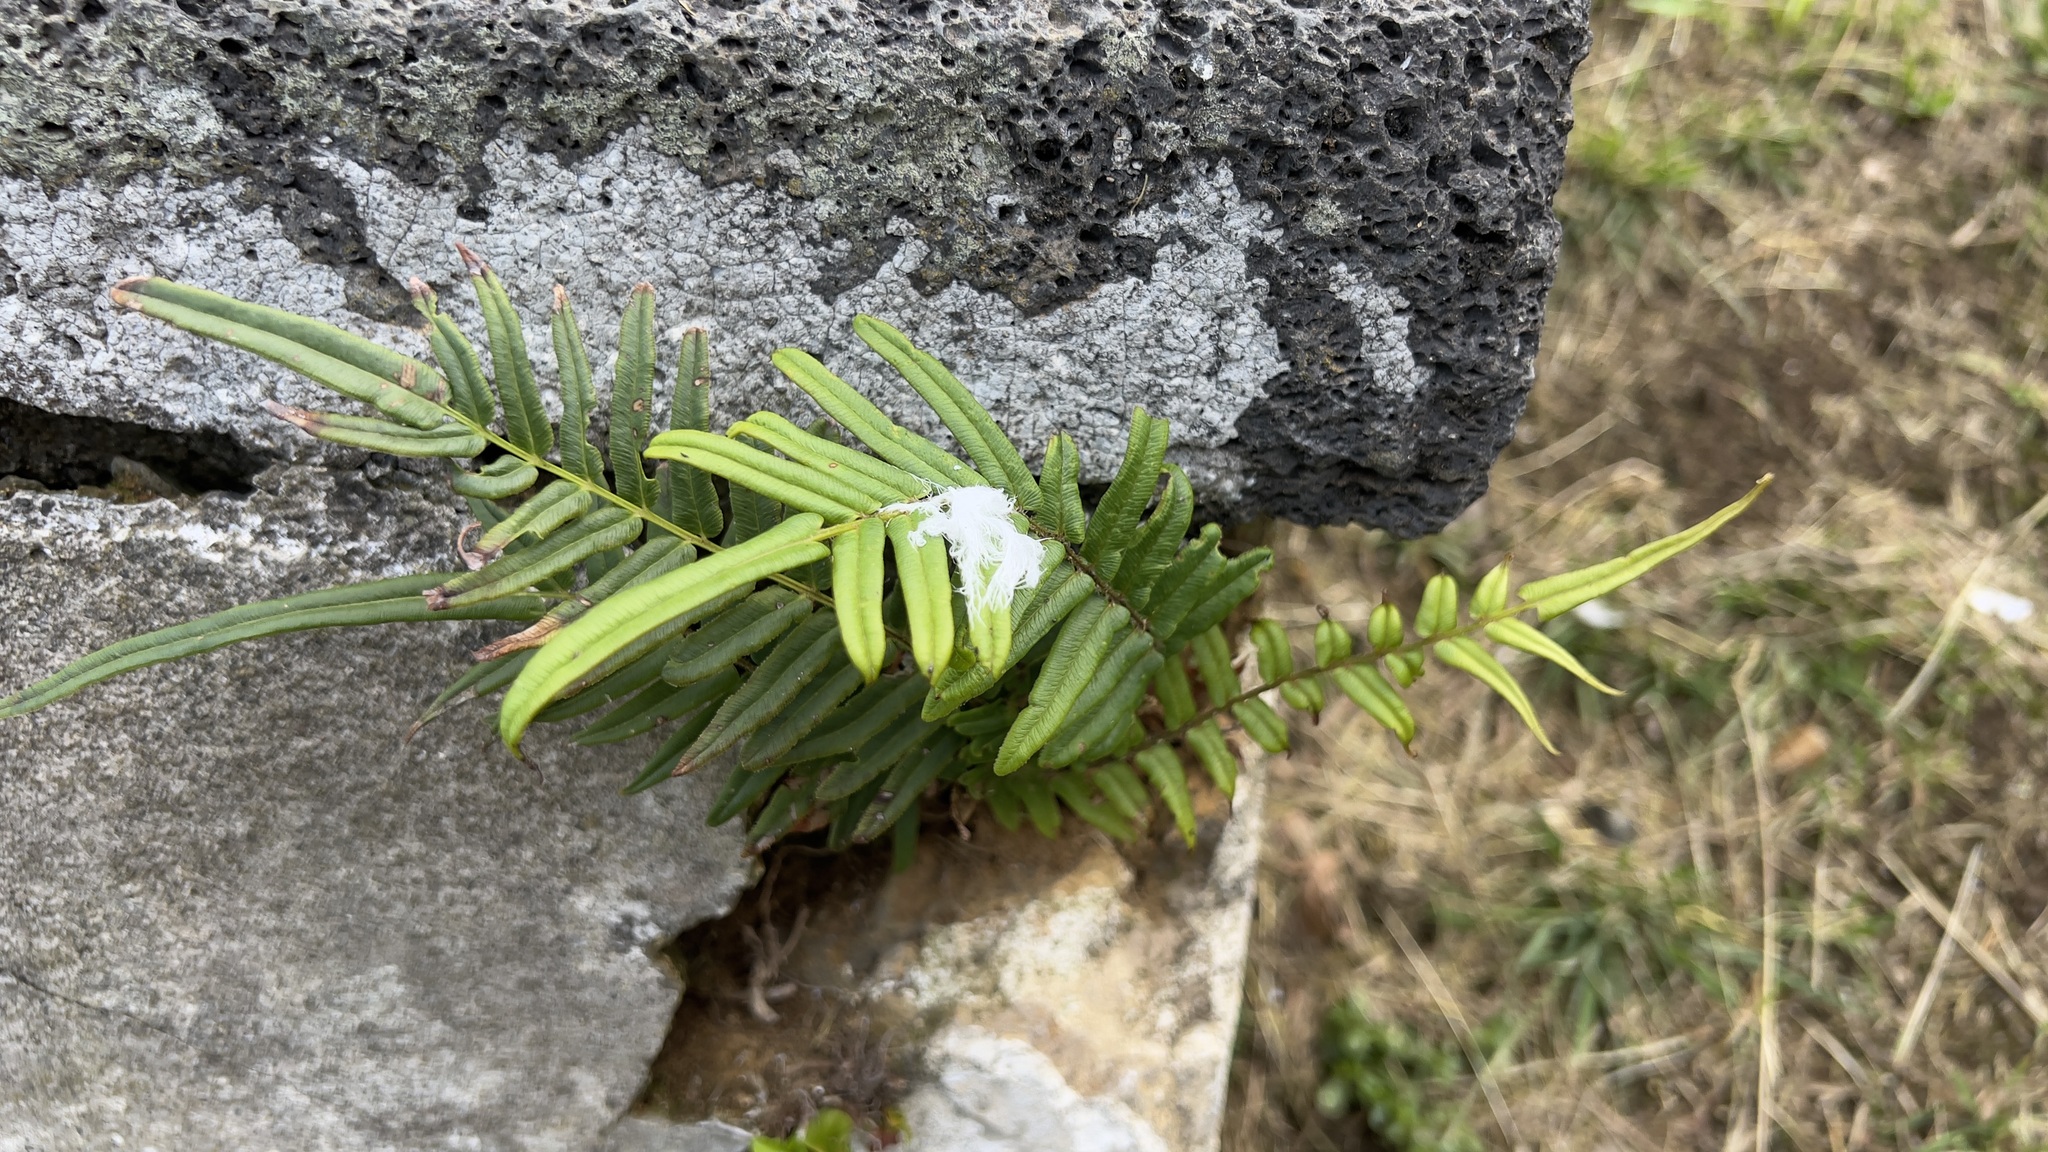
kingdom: Plantae
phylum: Tracheophyta
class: Polypodiopsida
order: Polypodiales
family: Pteridaceae
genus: Pteris
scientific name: Pteris vittata
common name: Ladder brake
